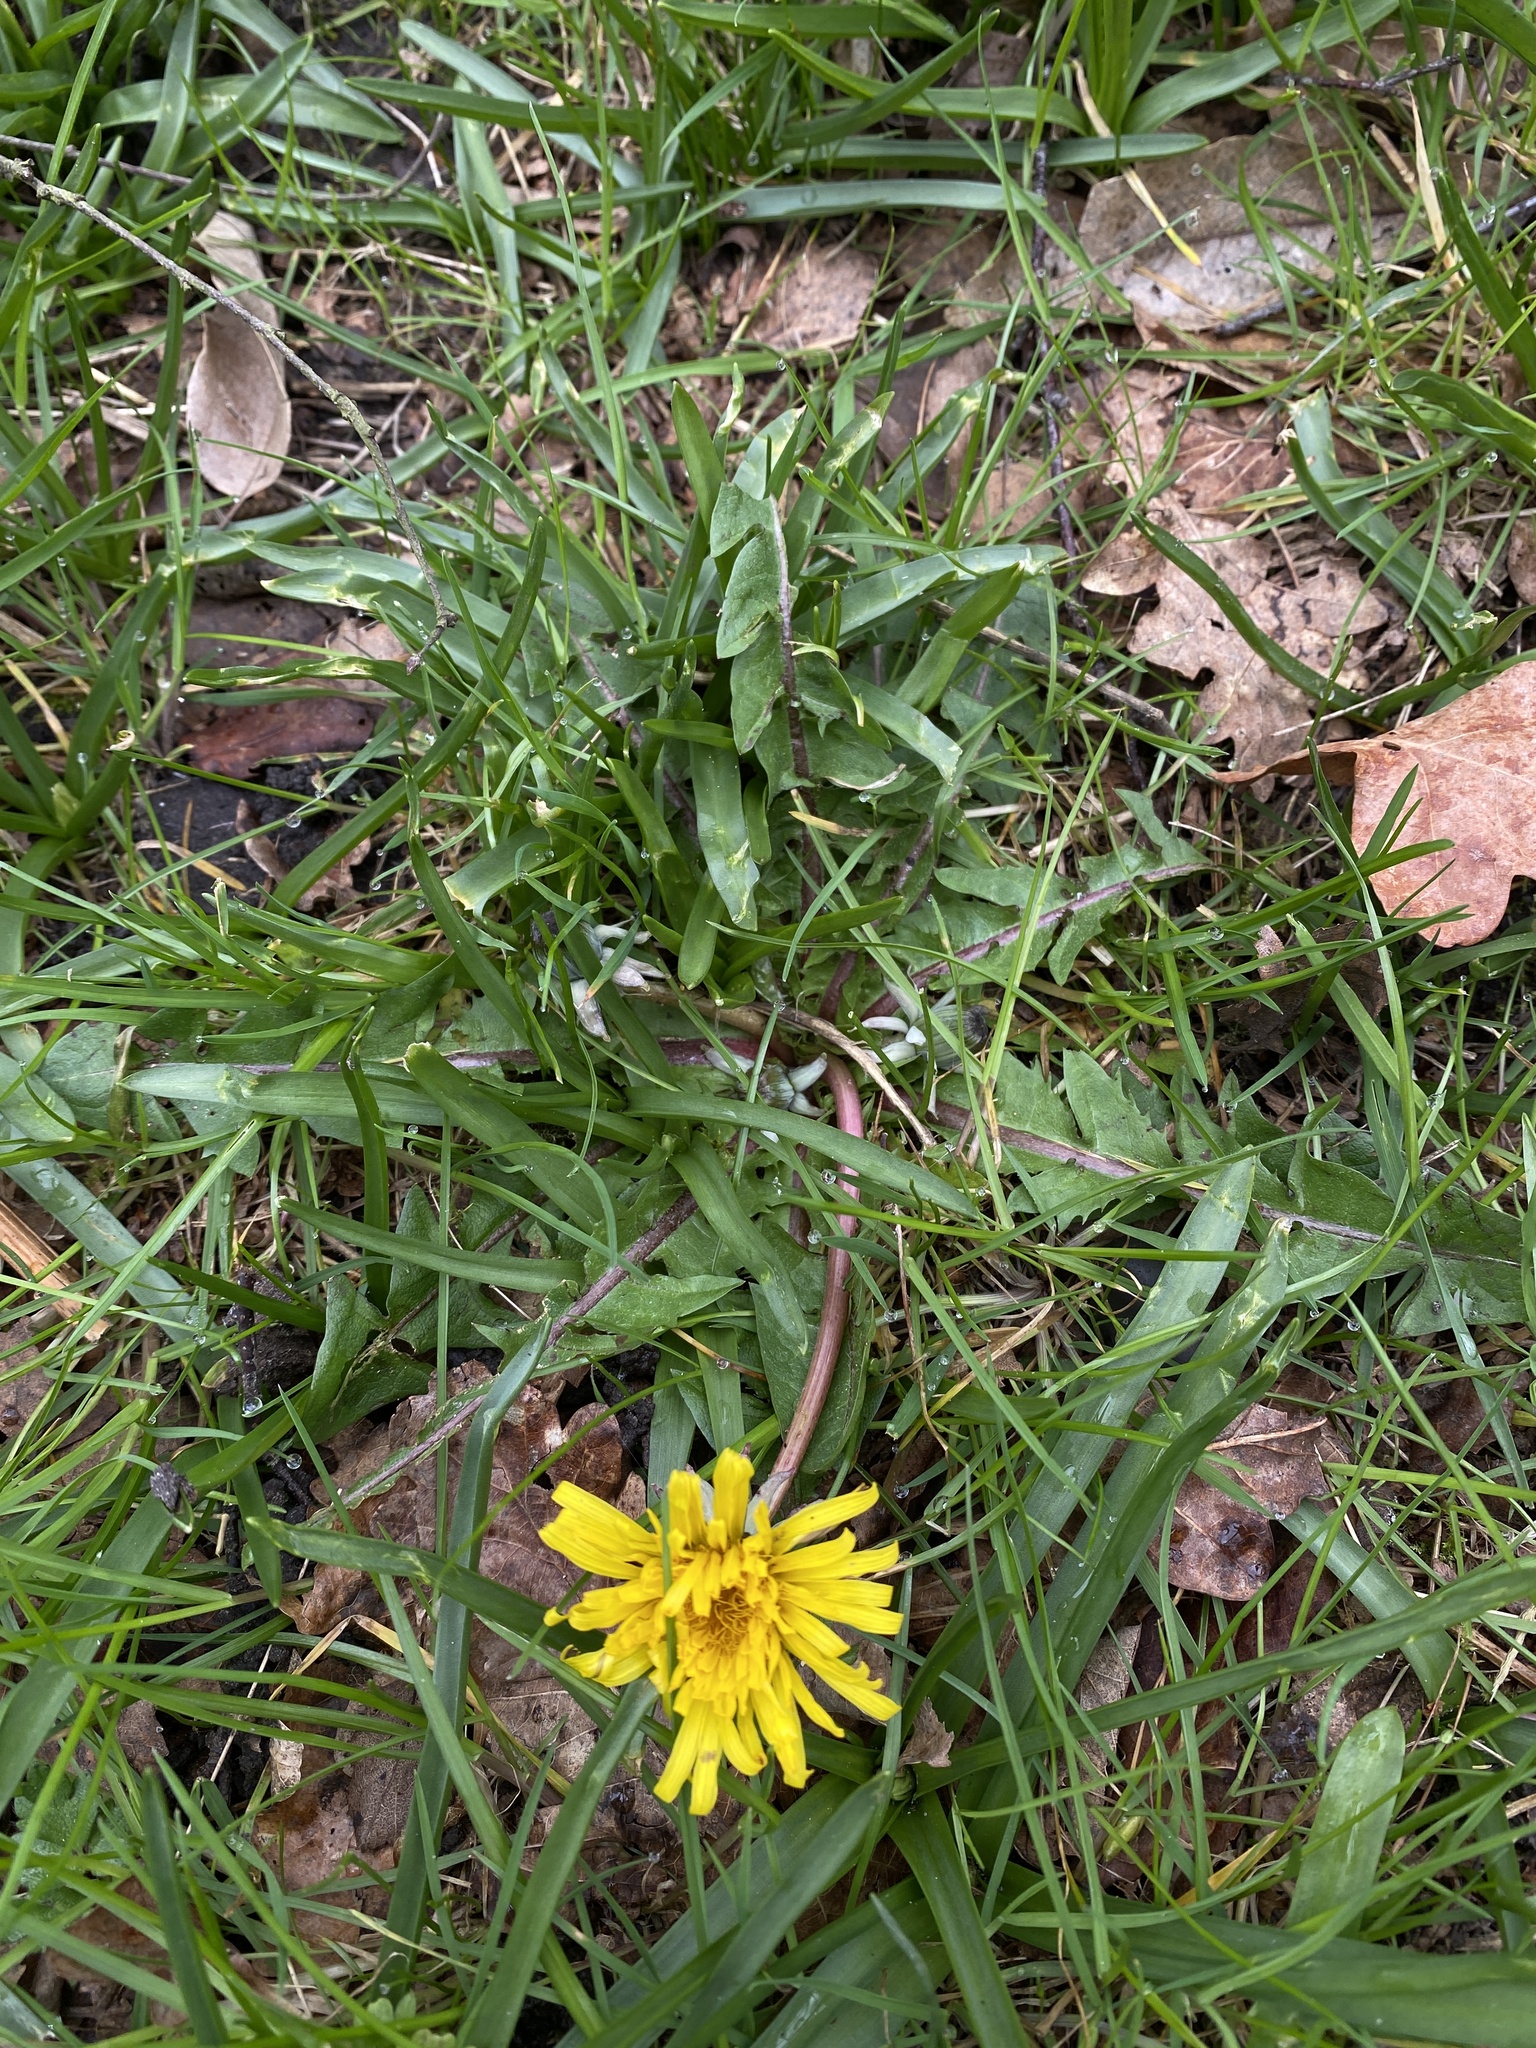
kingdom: Plantae
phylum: Tracheophyta
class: Magnoliopsida
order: Asterales
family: Asteraceae
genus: Taraxacum
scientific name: Taraxacum officinale
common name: Common dandelion
